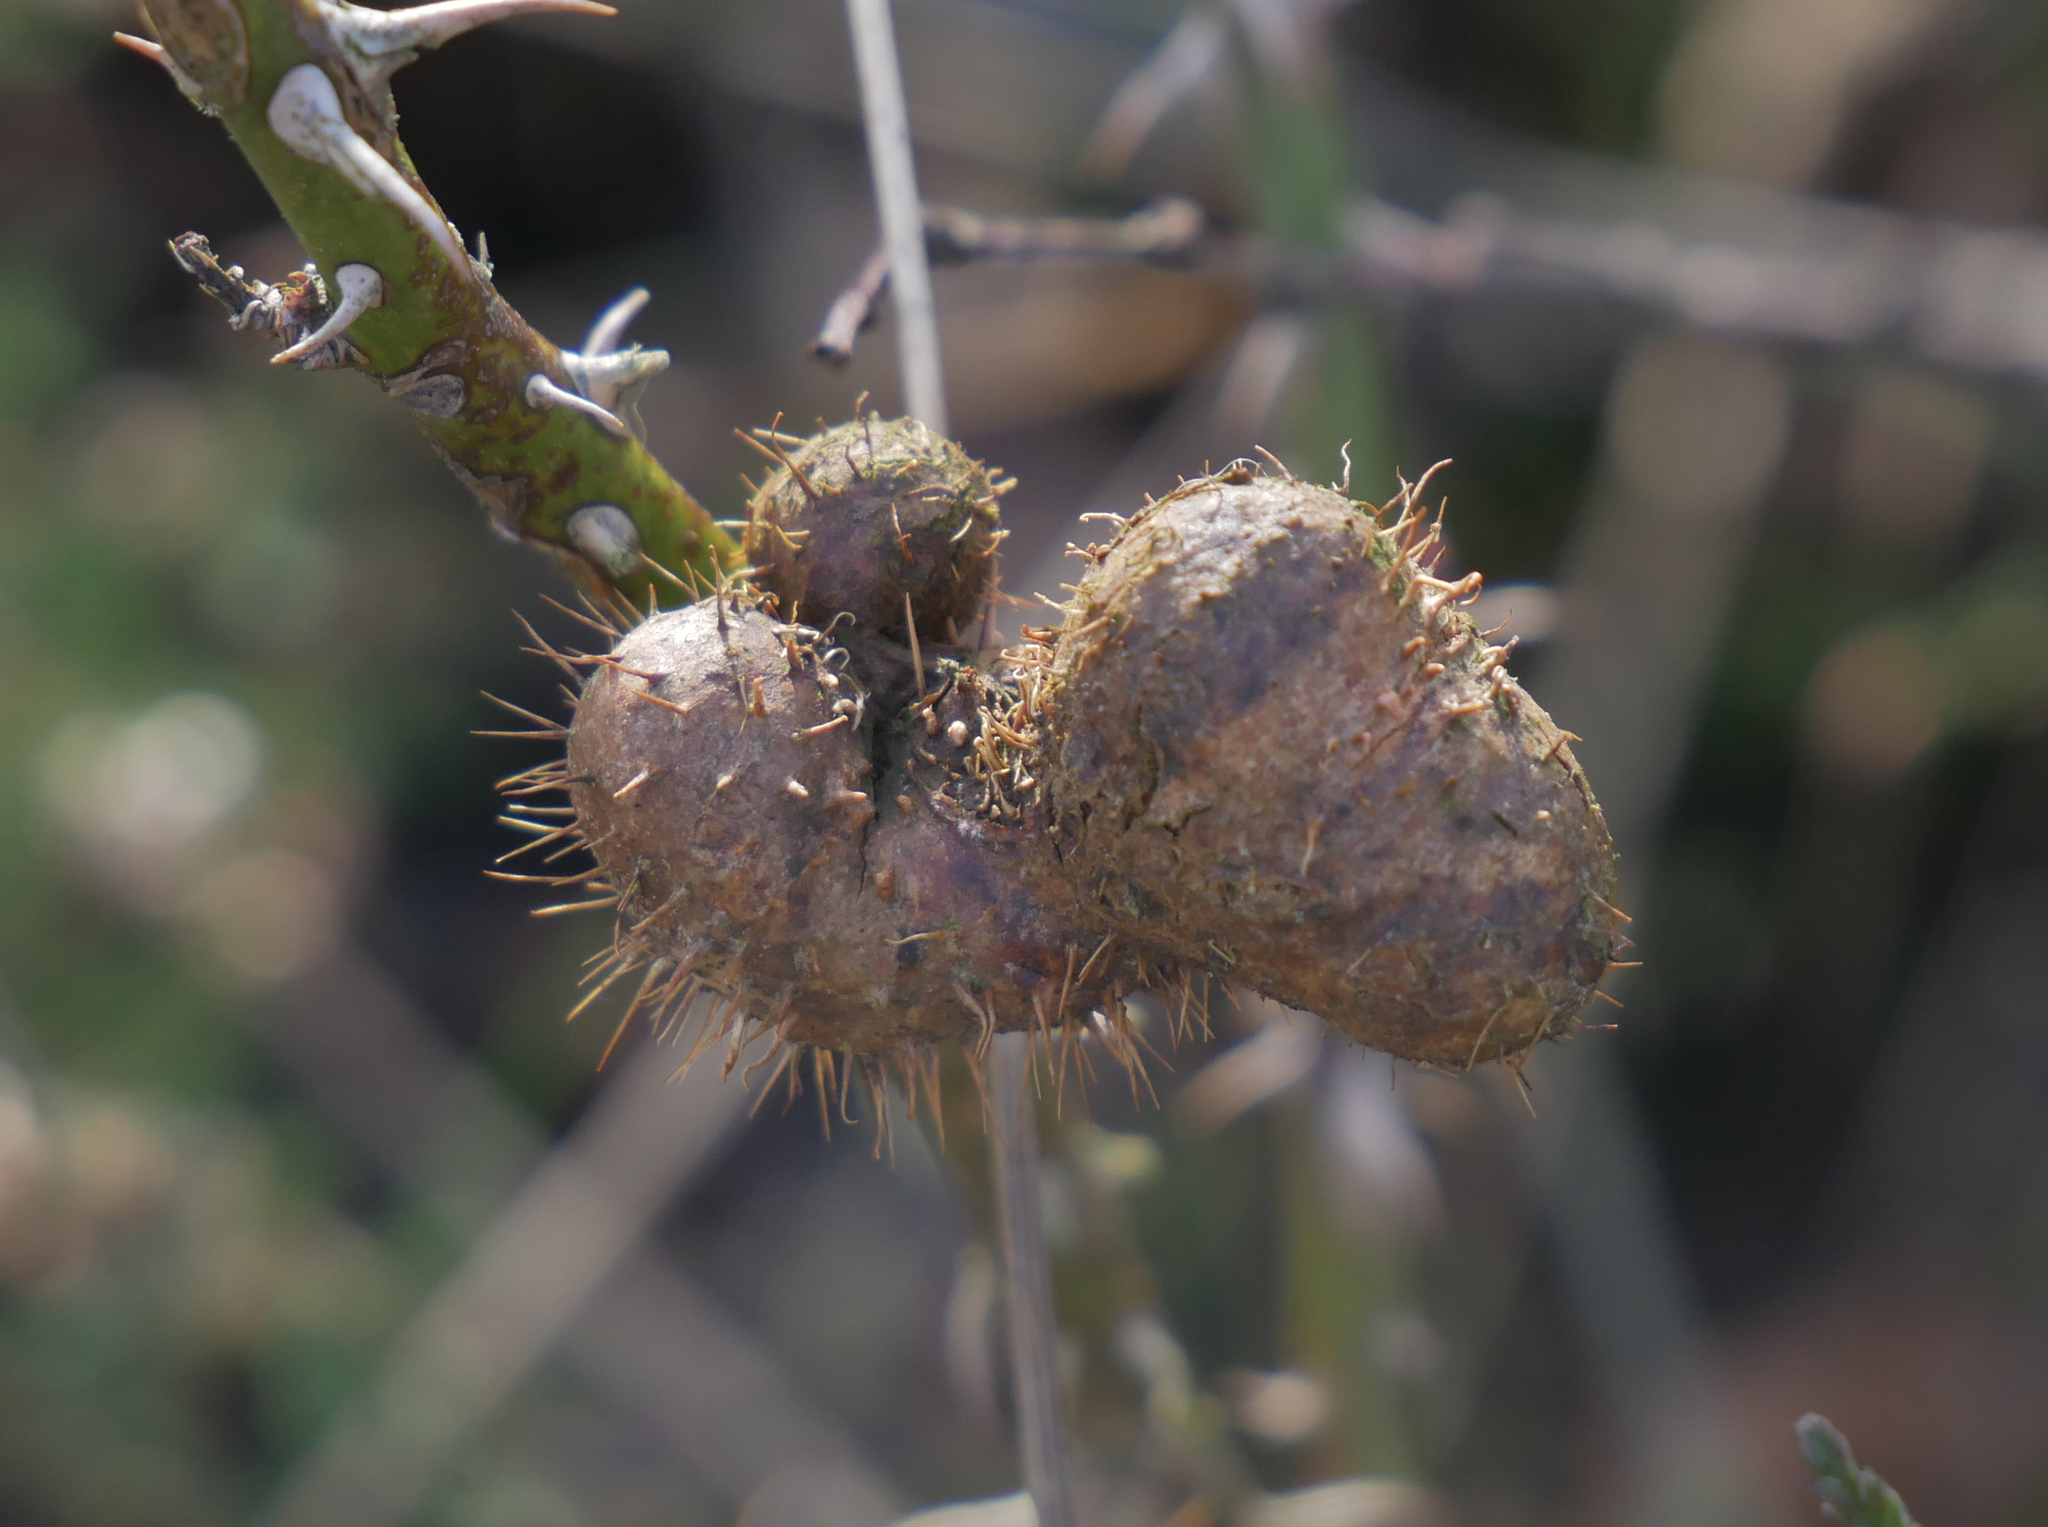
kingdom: Animalia
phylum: Arthropoda
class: Insecta
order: Hymenoptera
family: Cynipidae
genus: Diplolepis
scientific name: Diplolepis mayri
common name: Gall wasp
